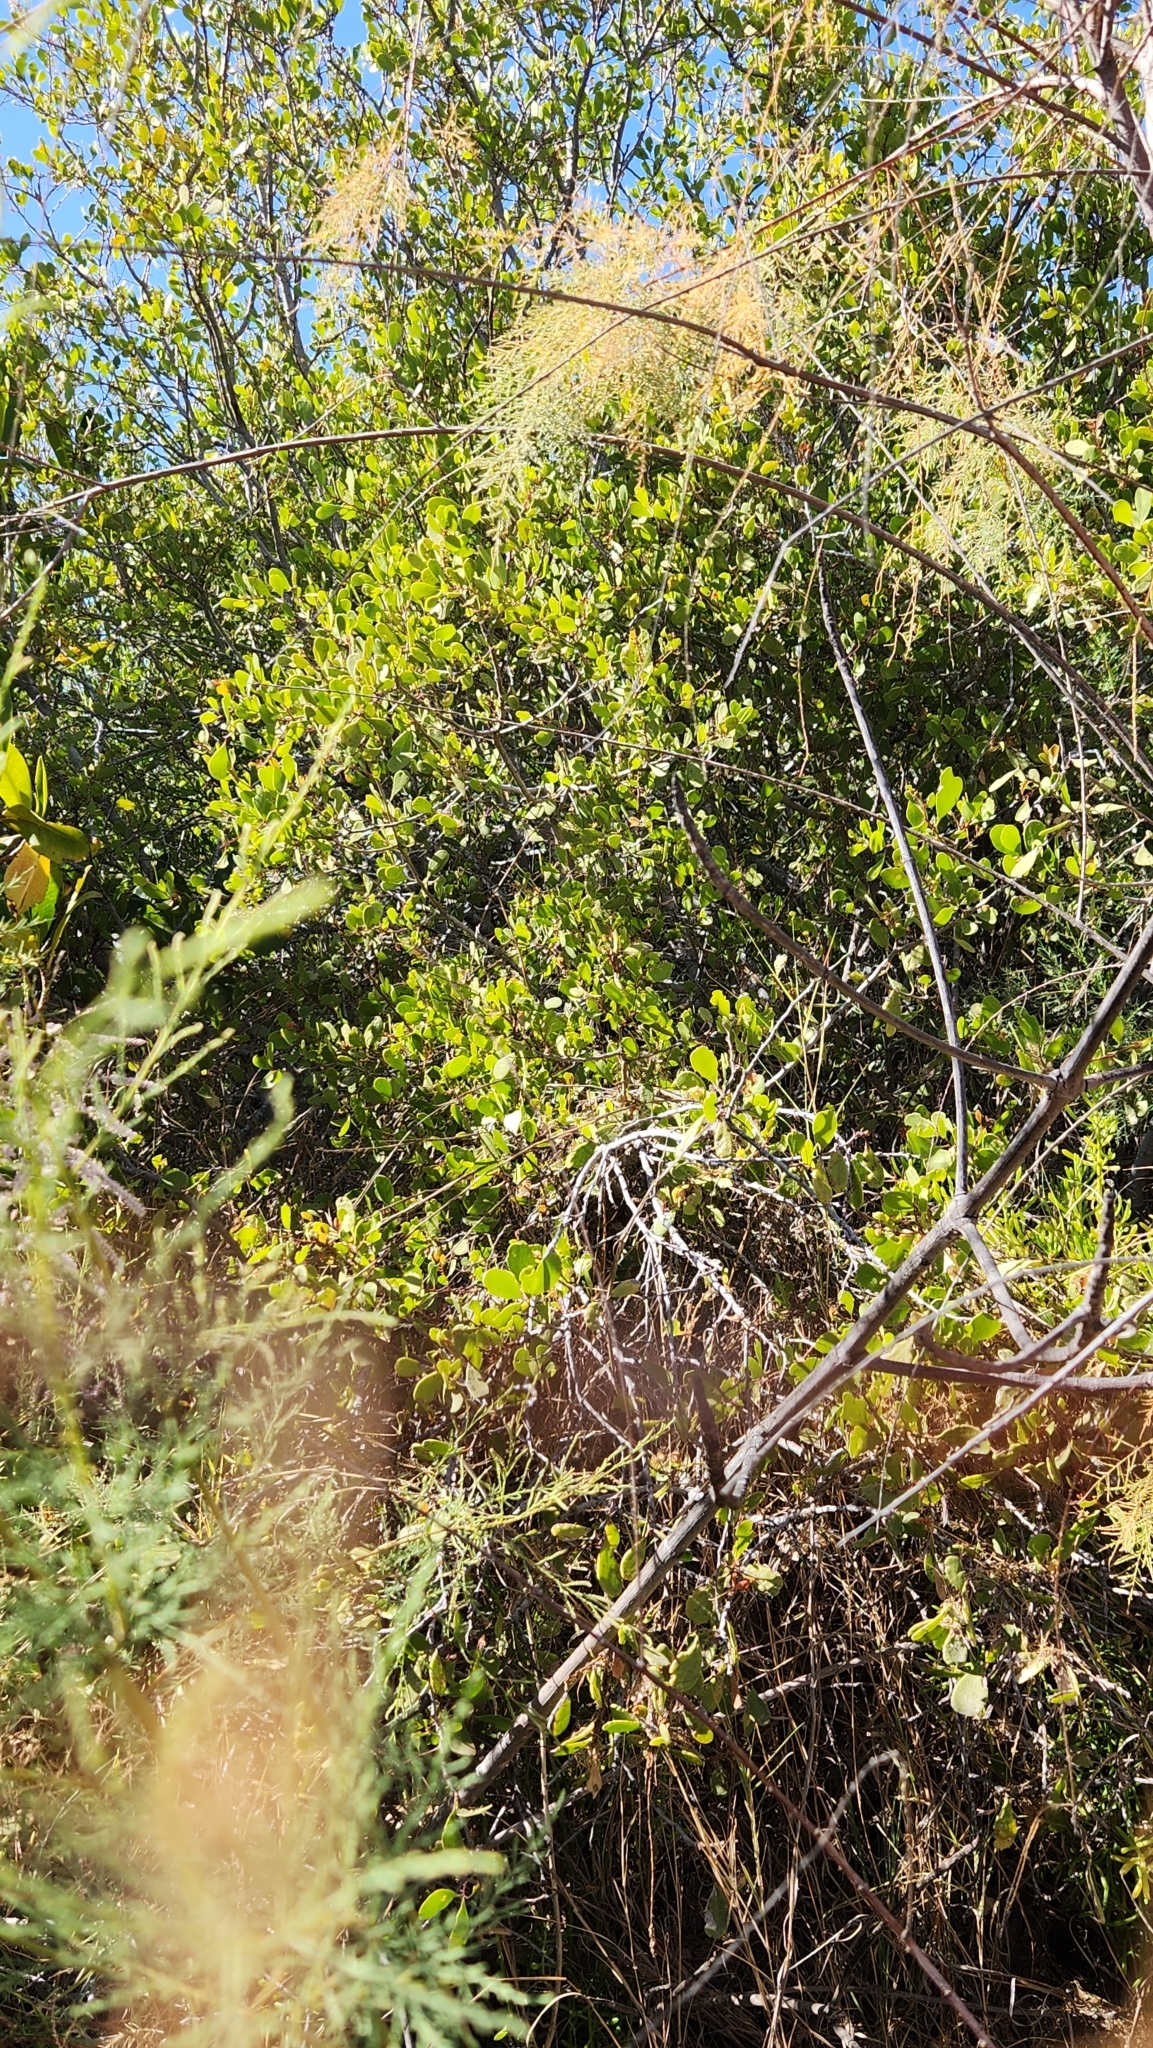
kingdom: Plantae
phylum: Tracheophyta
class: Magnoliopsida
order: Celastrales
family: Celastraceae
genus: Tricerma
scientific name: Tricerma phyllanthoides
